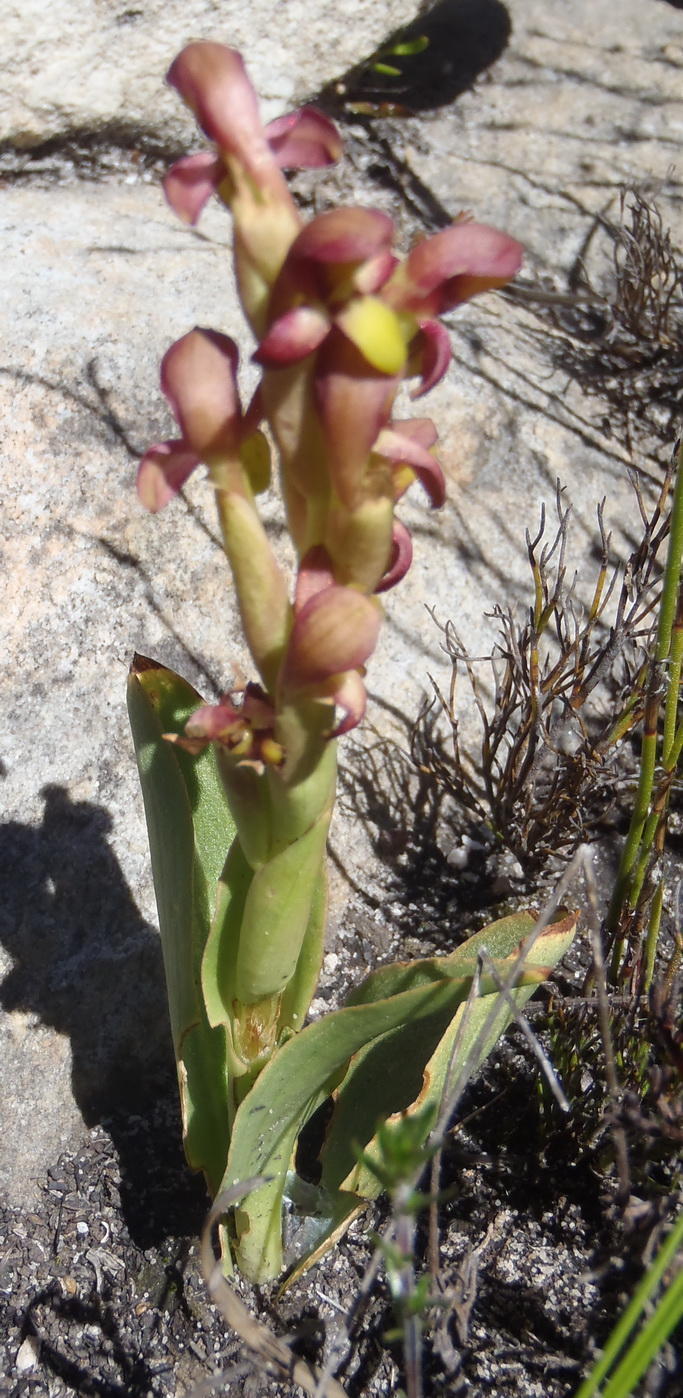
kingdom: Plantae
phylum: Tracheophyta
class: Liliopsida
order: Asparagales
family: Orchidaceae
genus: Disa
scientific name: Disa bolusiana
